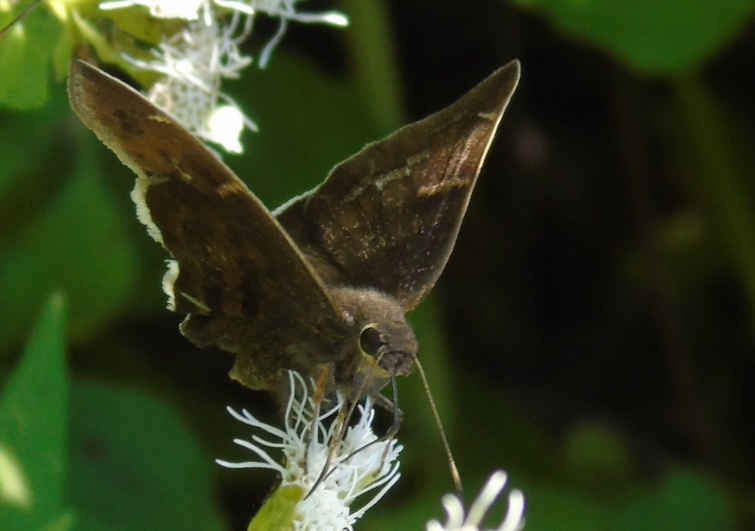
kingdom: Animalia
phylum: Arthropoda
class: Insecta
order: Lepidoptera
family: Hesperiidae
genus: Achalarus
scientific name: Achalarus Murgaria albociliatus
